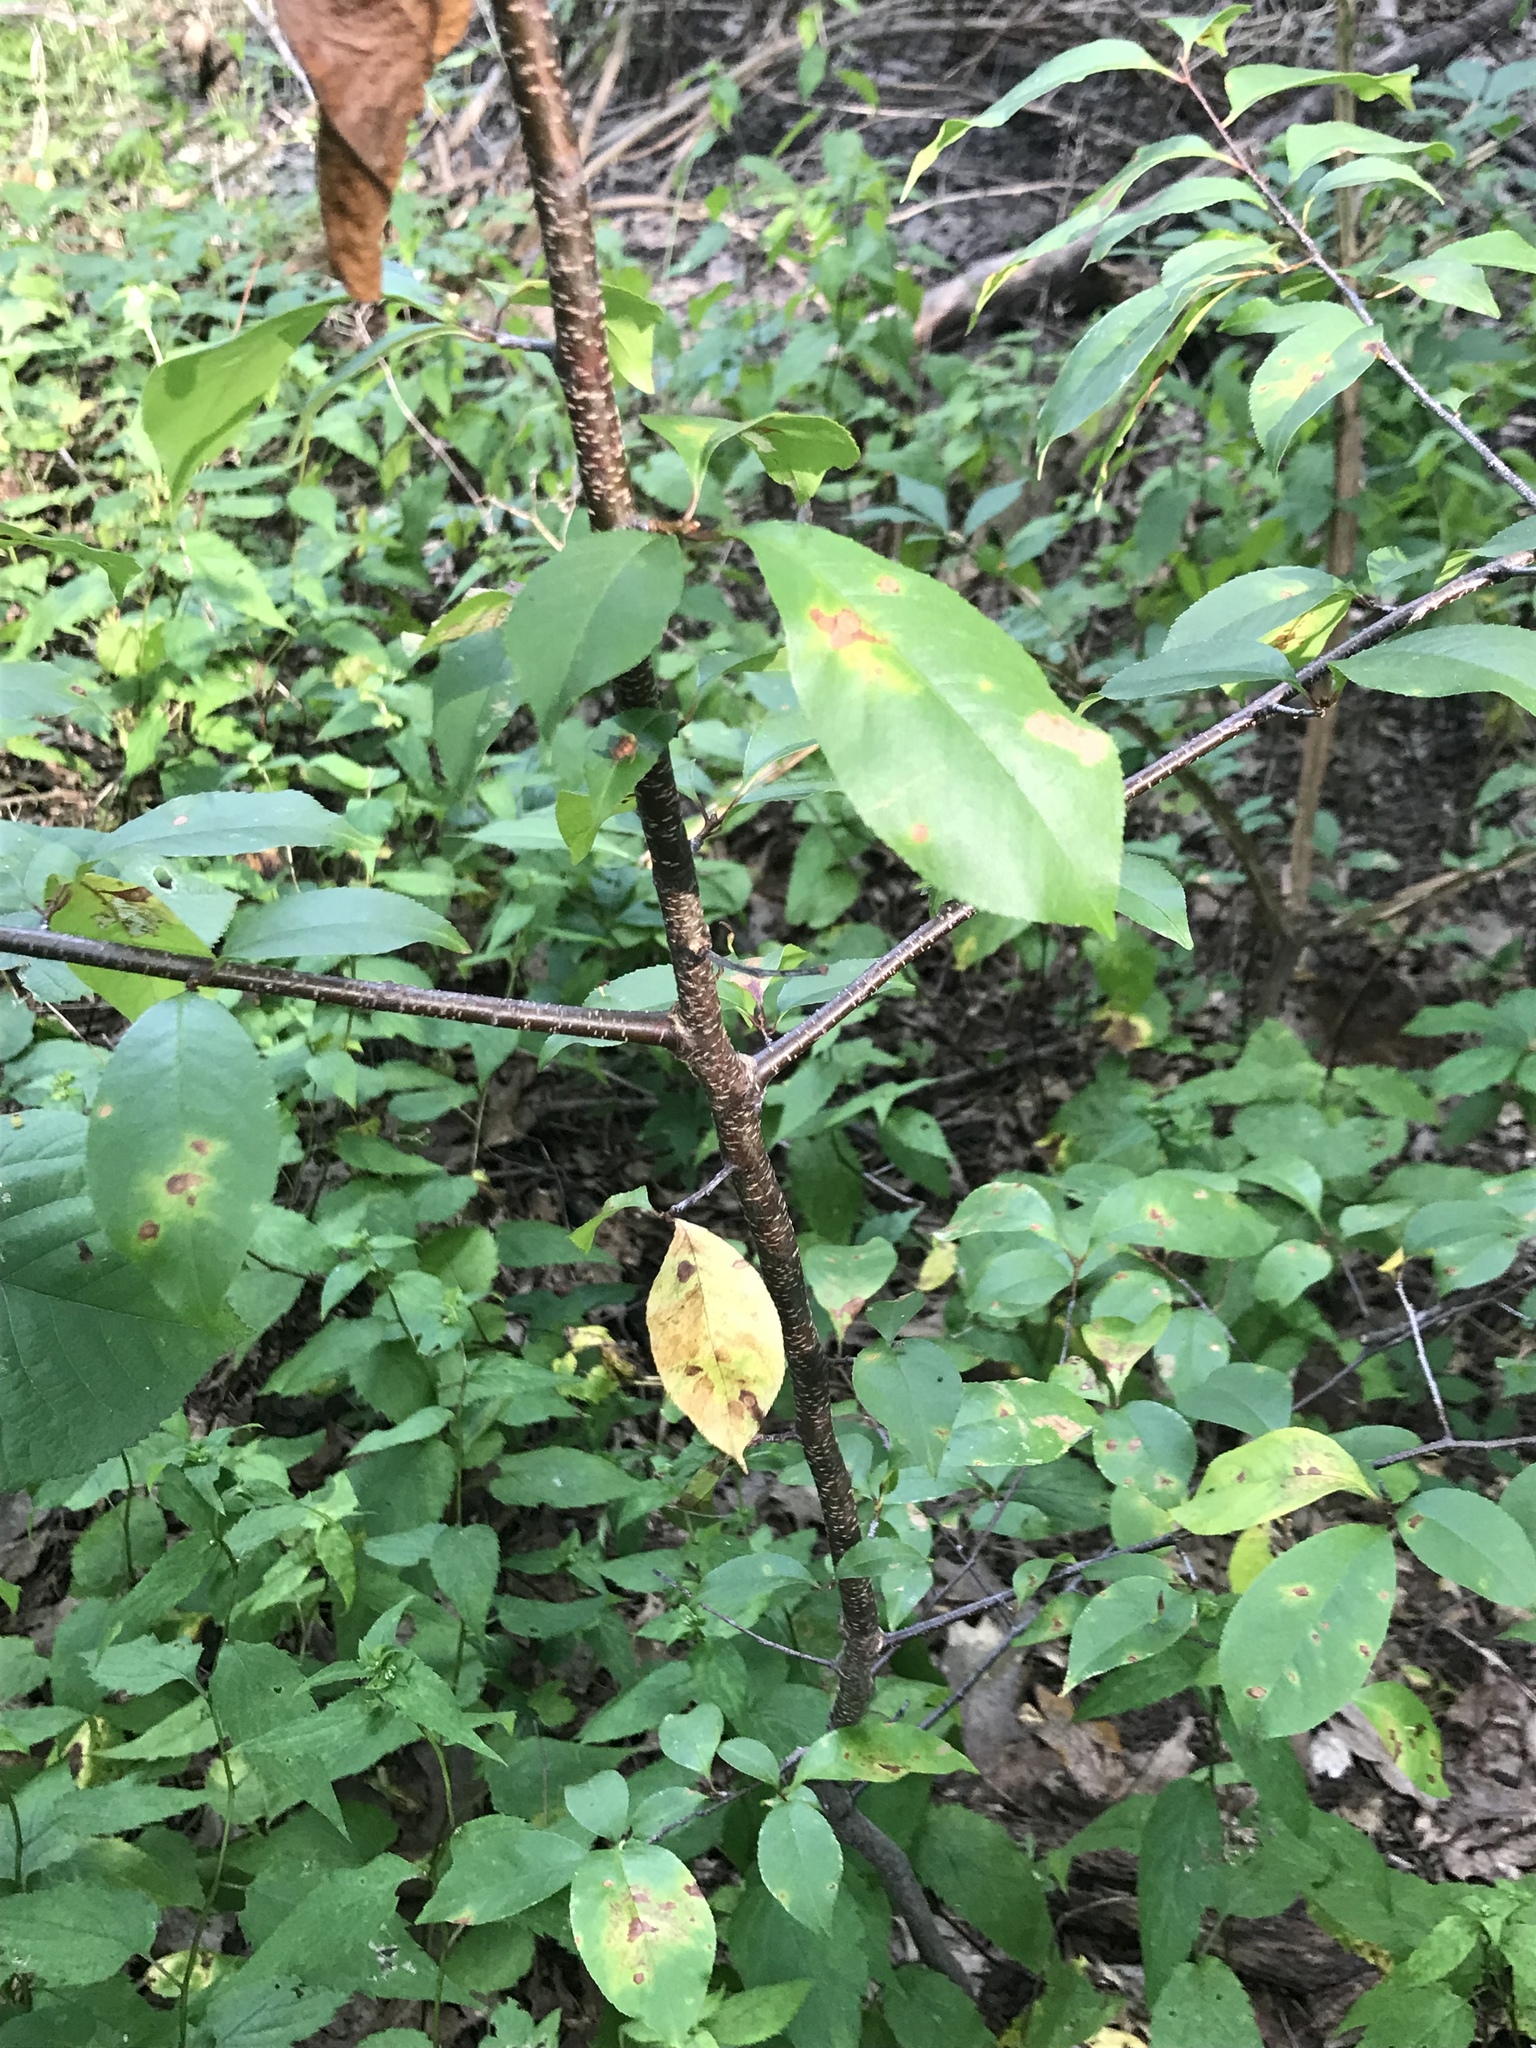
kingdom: Plantae
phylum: Tracheophyta
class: Magnoliopsida
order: Rosales
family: Rosaceae
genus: Prunus
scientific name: Prunus serotina
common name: Black cherry
